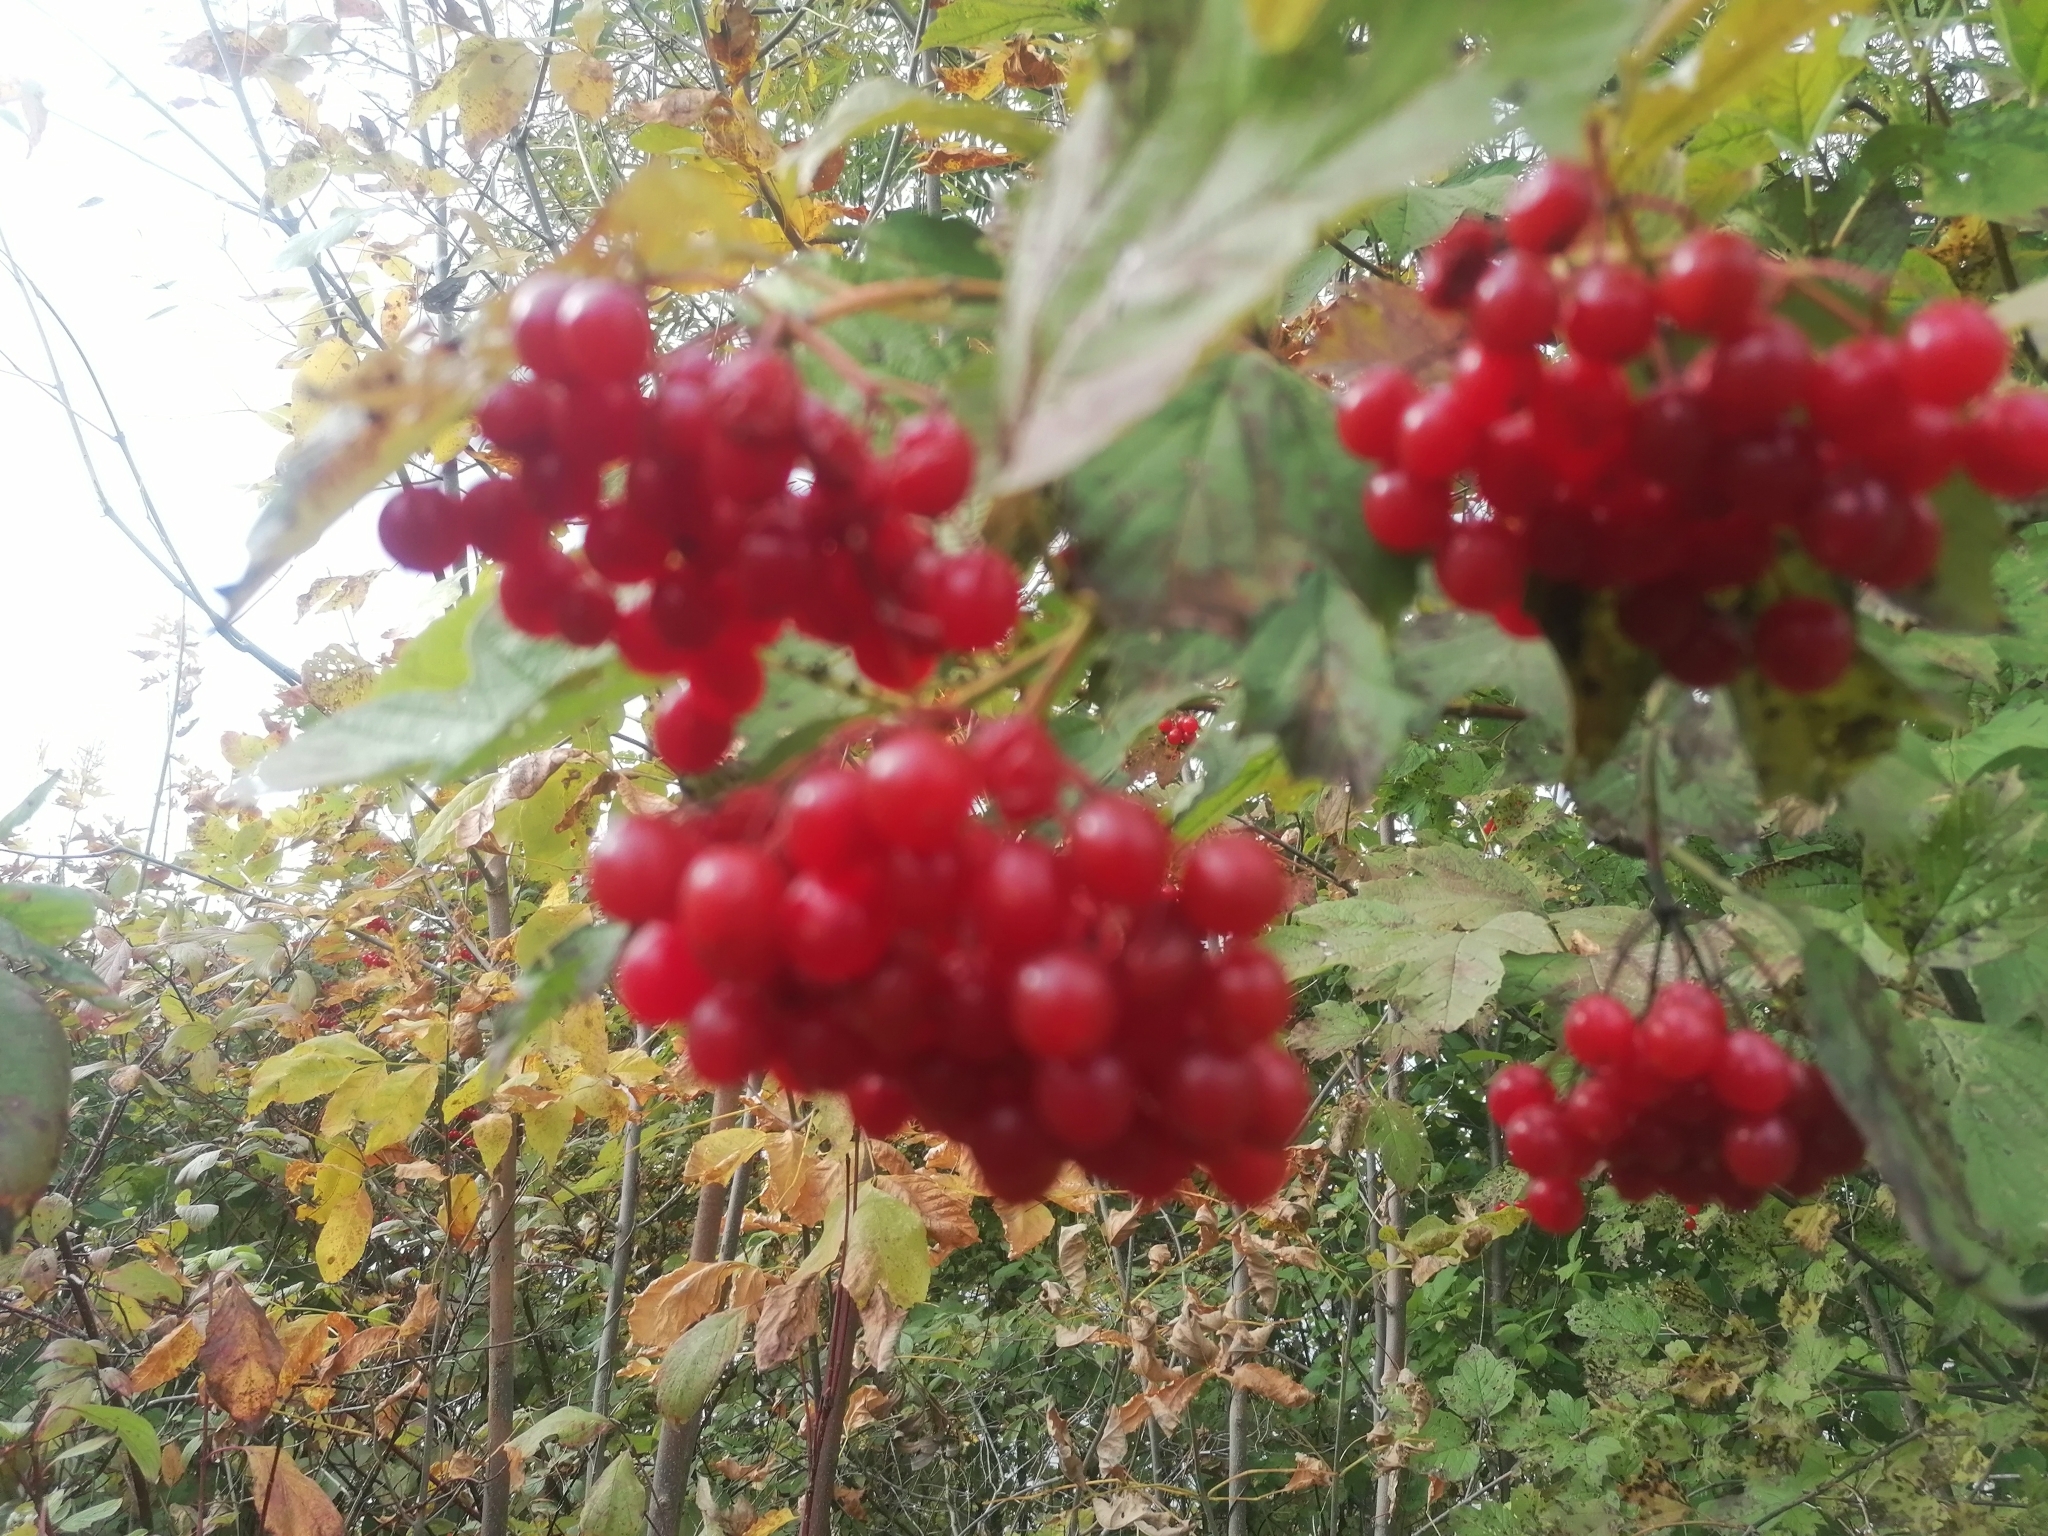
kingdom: Plantae
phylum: Tracheophyta
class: Magnoliopsida
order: Dipsacales
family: Viburnaceae
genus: Viburnum
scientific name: Viburnum opulus
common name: Guelder-rose
